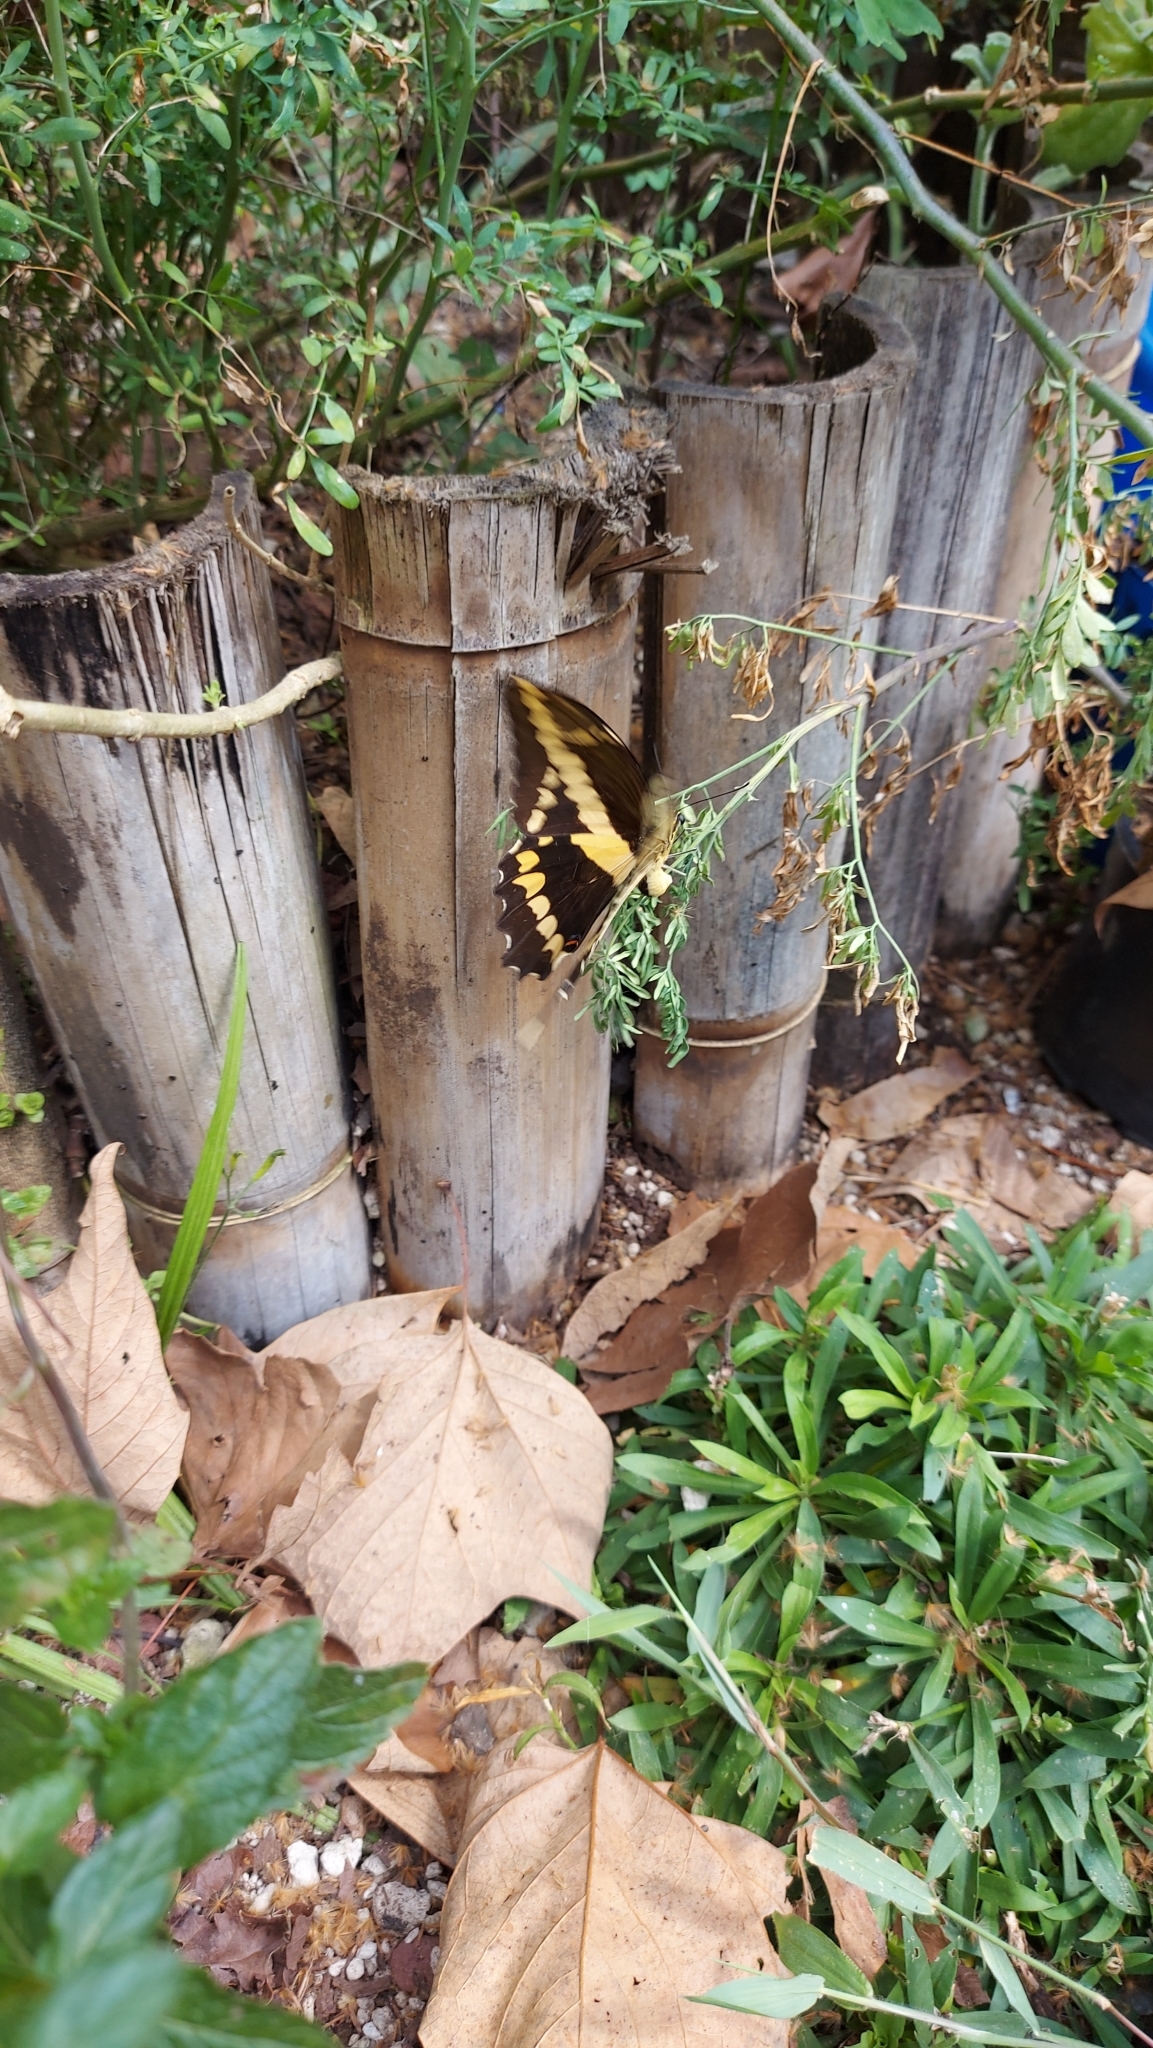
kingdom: Animalia
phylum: Arthropoda
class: Insecta
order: Lepidoptera
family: Papilionidae
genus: Papilio
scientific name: Papilio rumiko
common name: Western giant swallowtail
